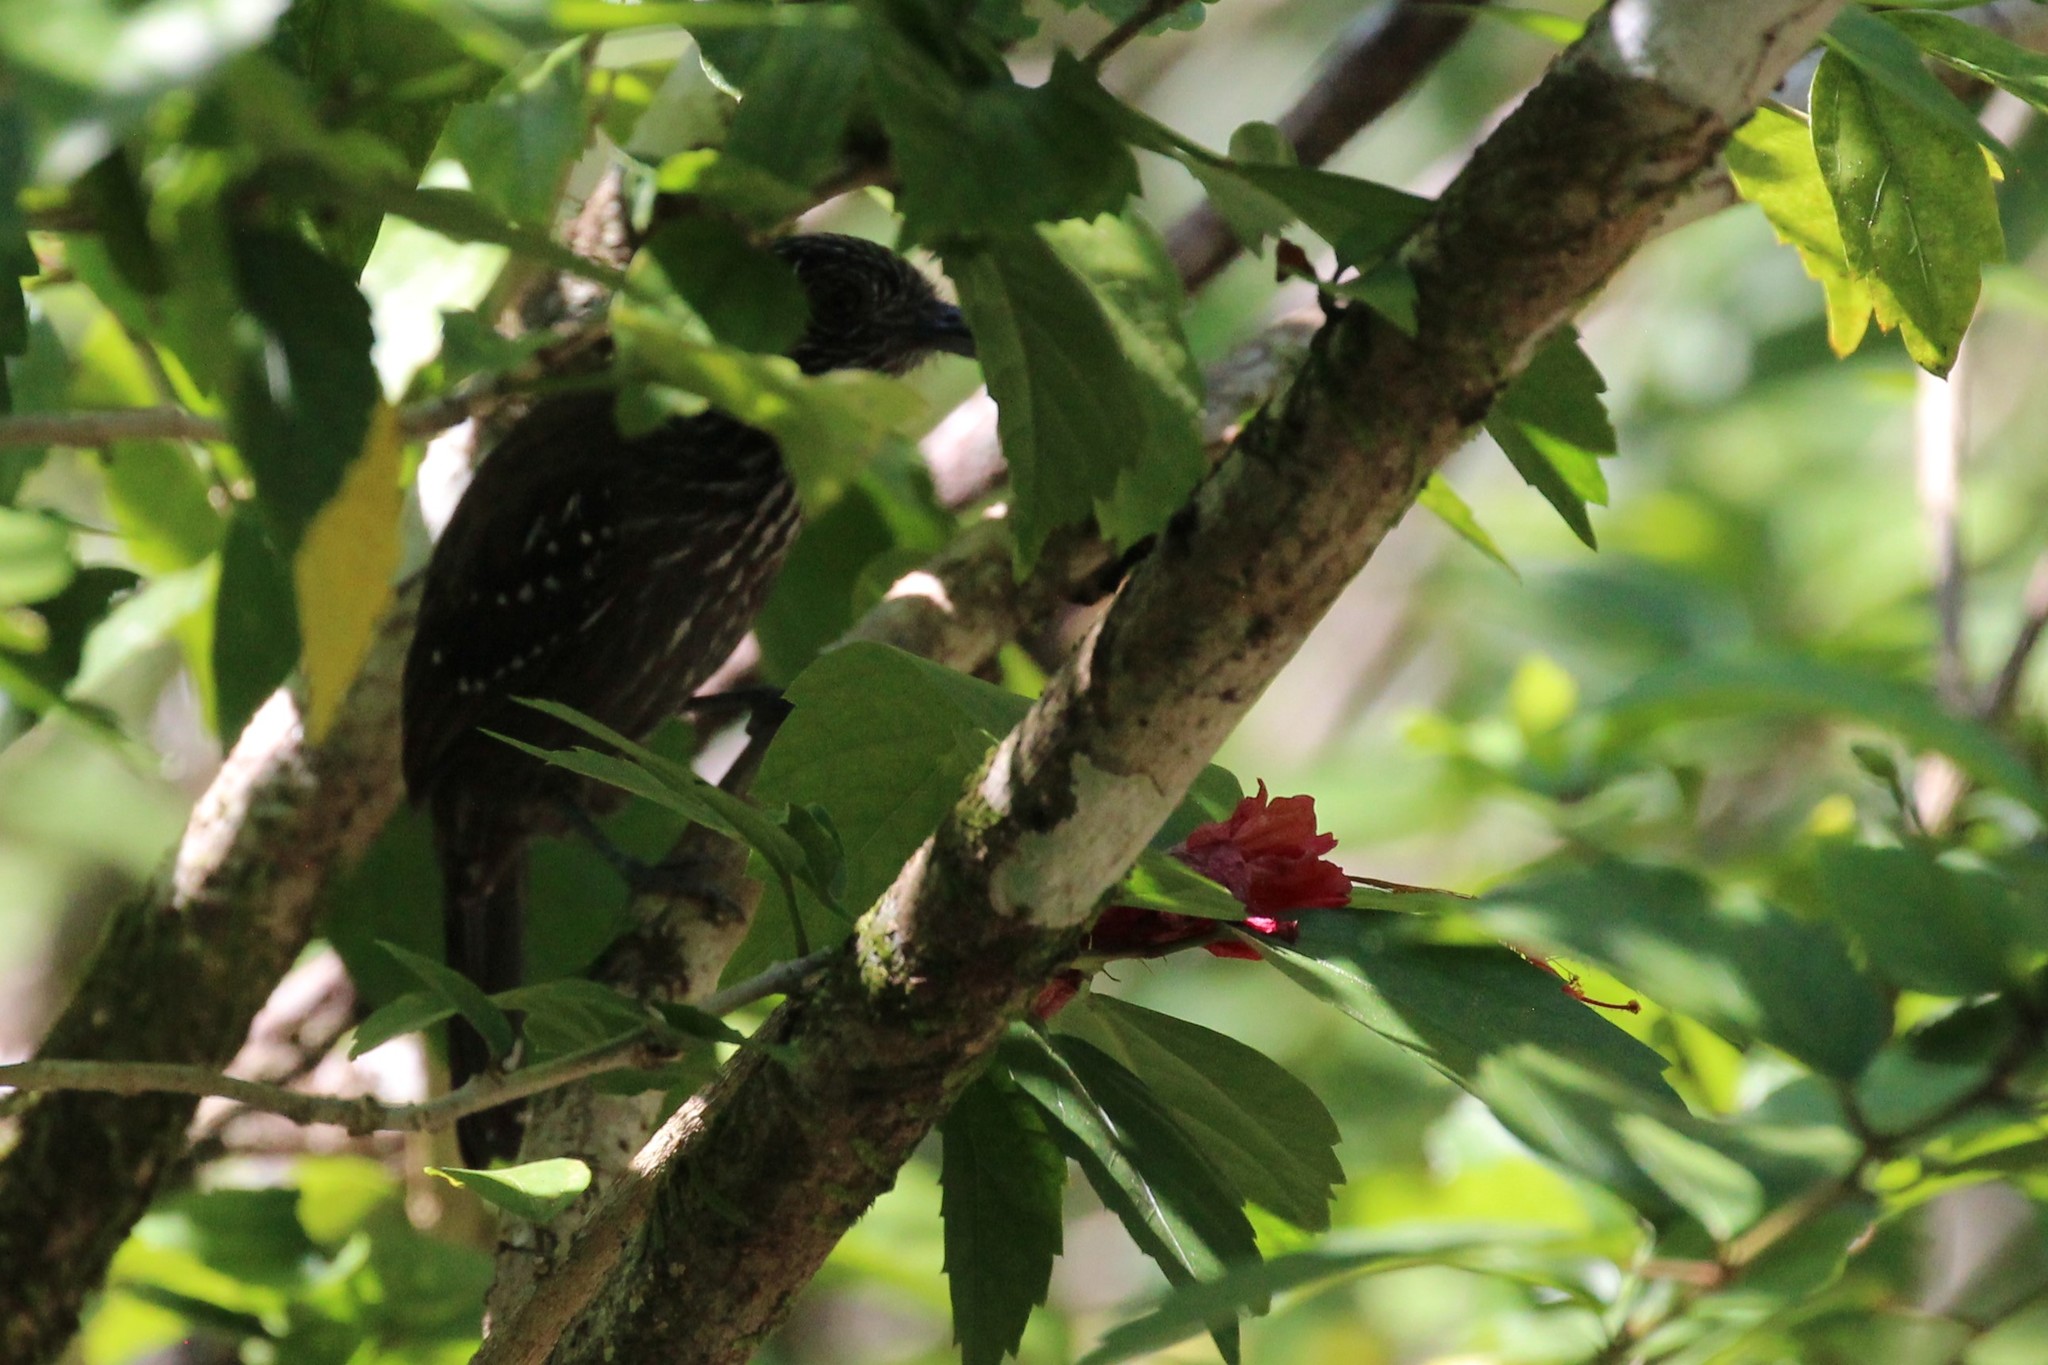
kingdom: Animalia
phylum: Chordata
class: Aves
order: Passeriformes
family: Thamnophilidae
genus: Thamnophilus
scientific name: Thamnophilus bridgesi
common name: Black-hooded antshrike
